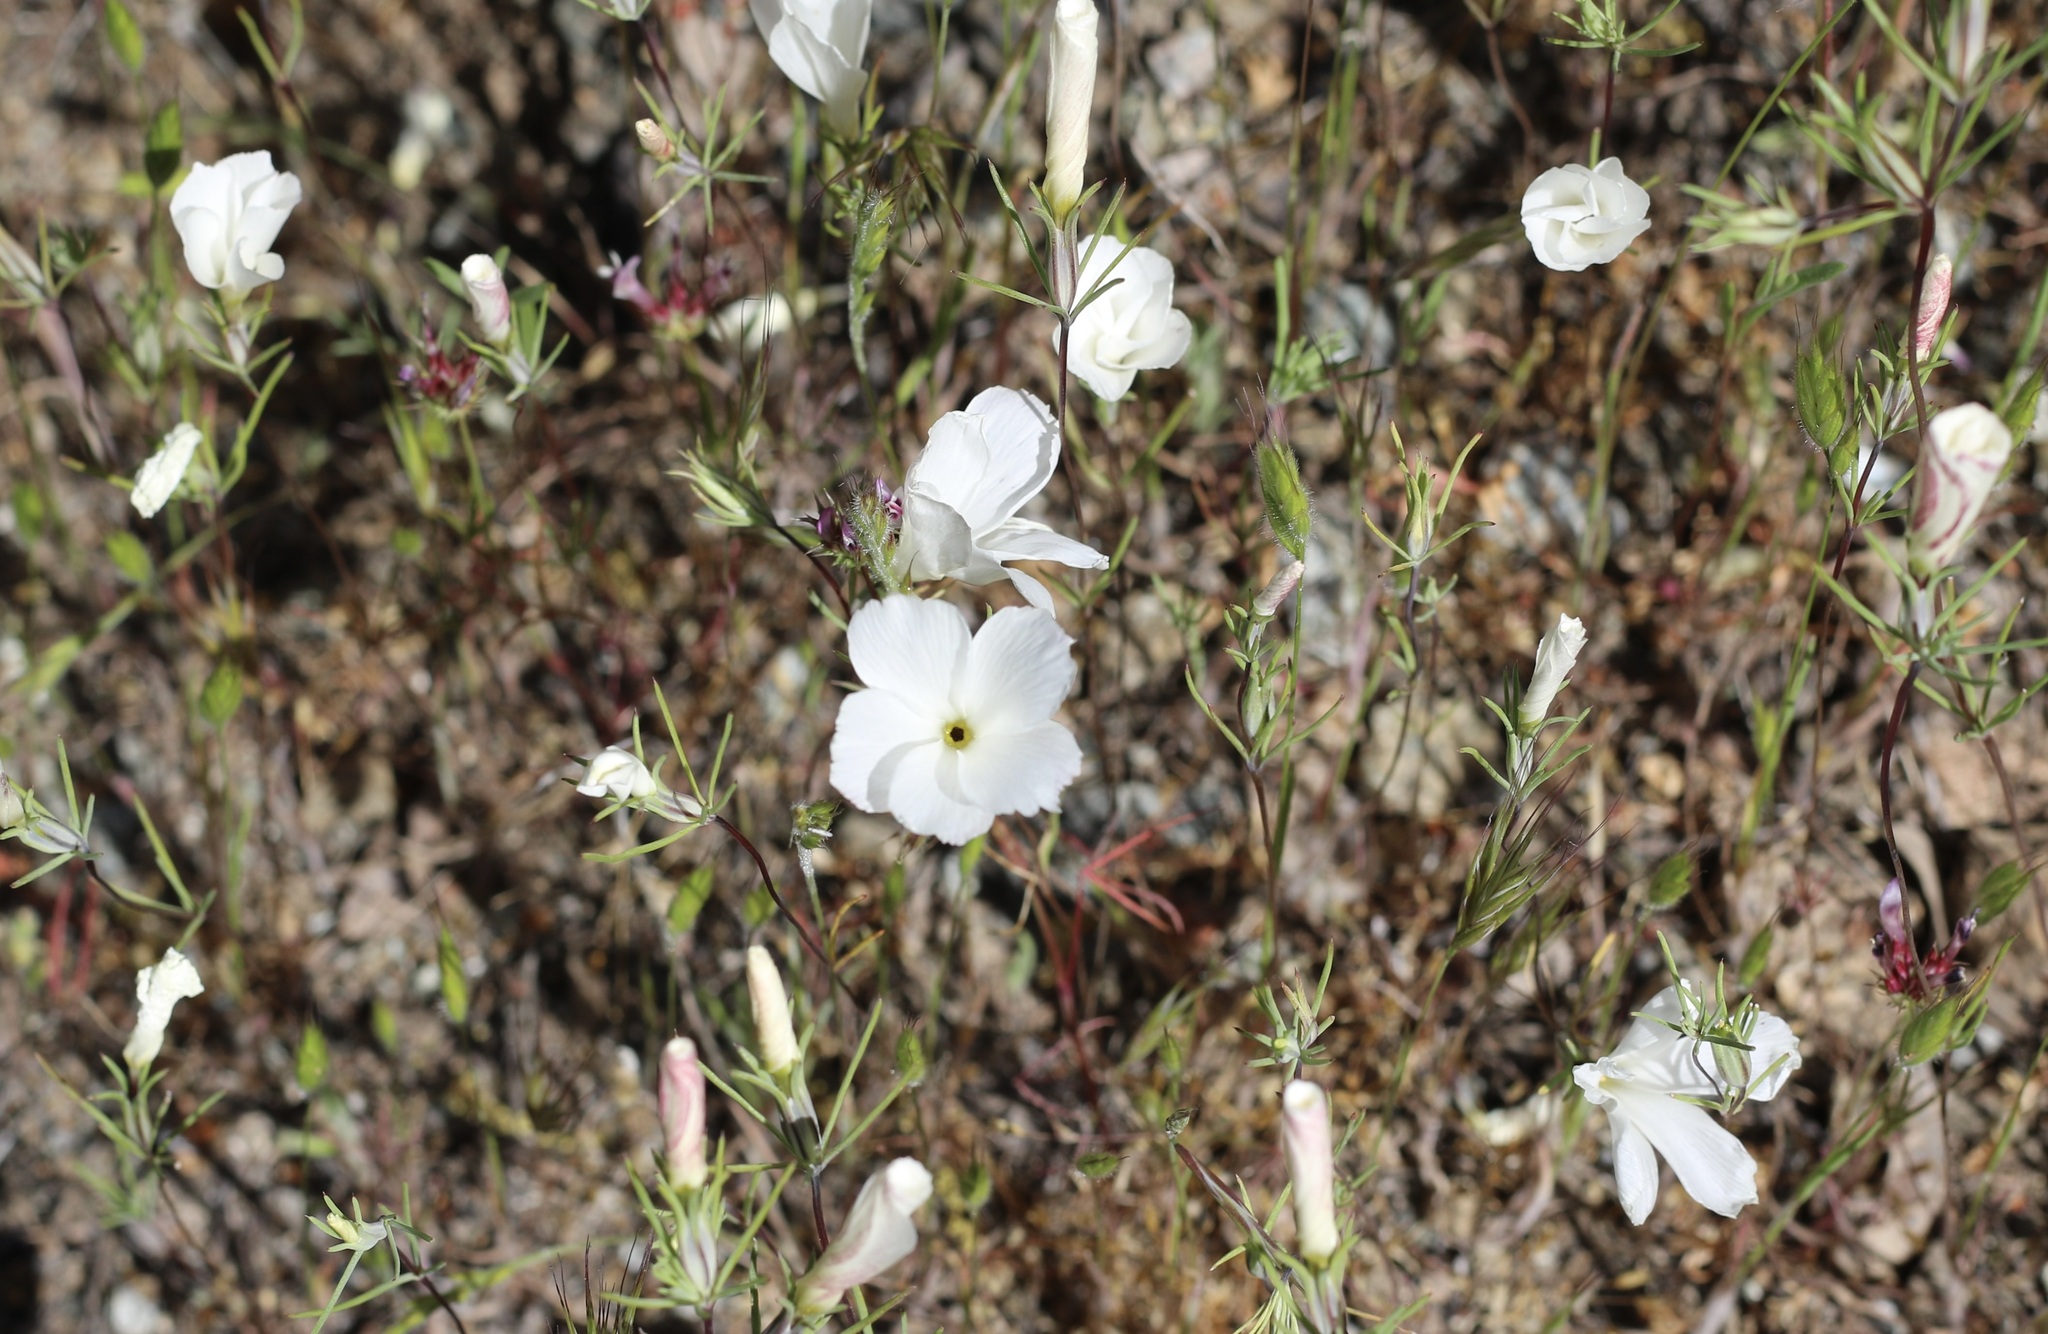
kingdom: Plantae
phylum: Tracheophyta
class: Magnoliopsida
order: Ericales
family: Polemoniaceae
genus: Linanthus
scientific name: Linanthus dichotomus
